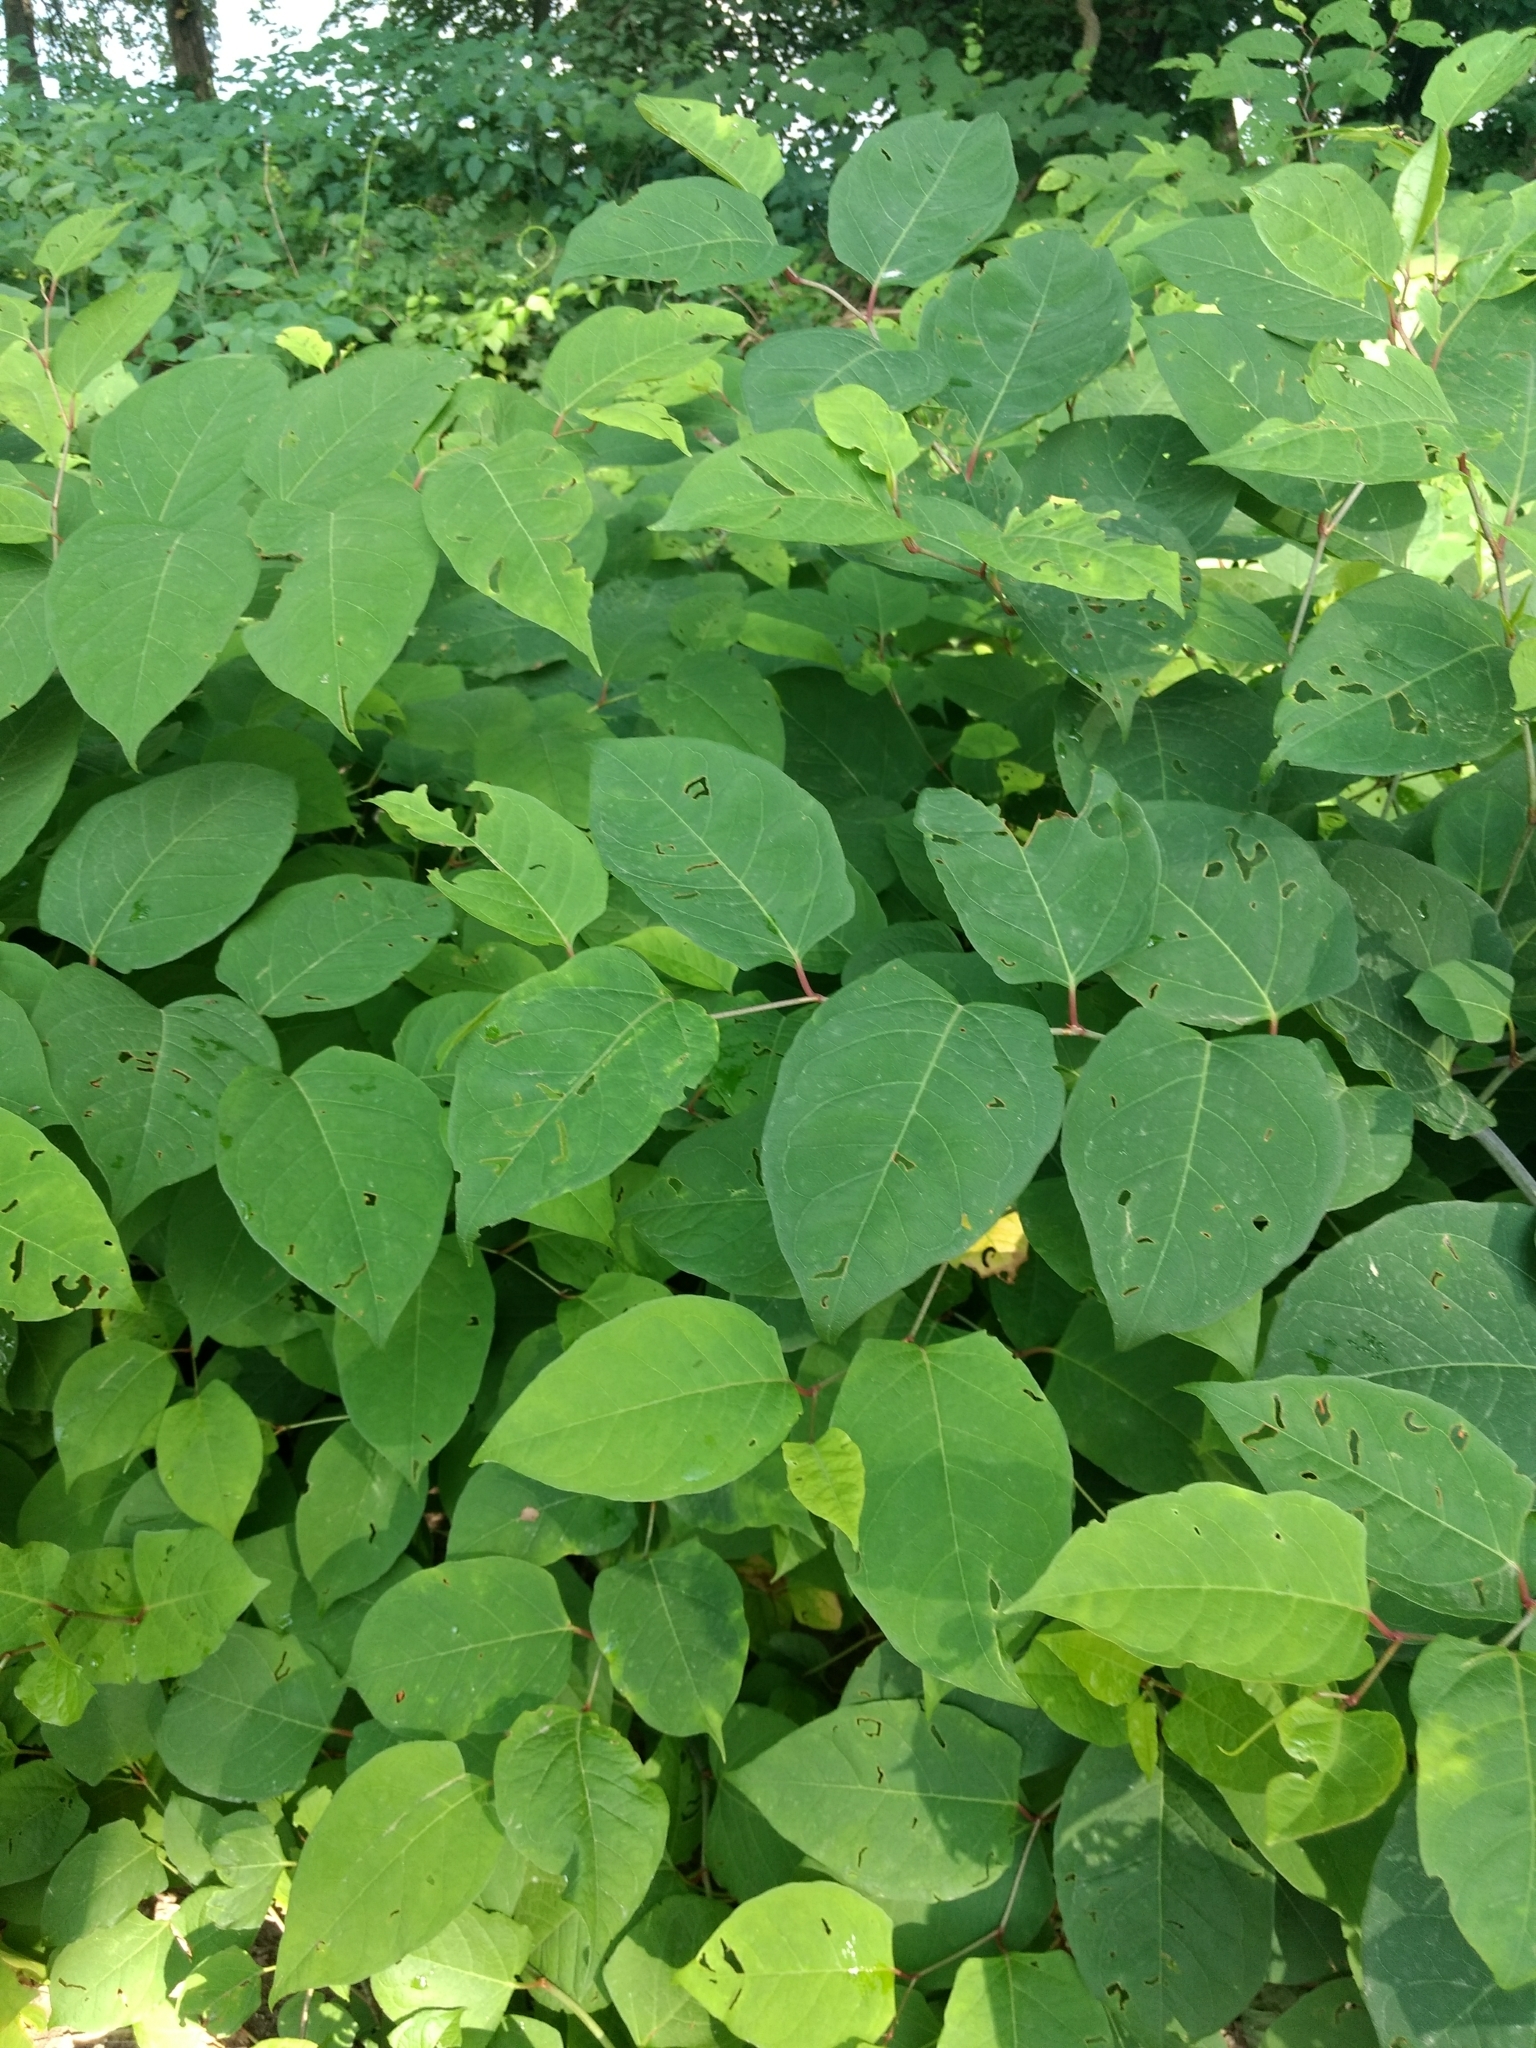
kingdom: Plantae
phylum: Tracheophyta
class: Magnoliopsida
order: Caryophyllales
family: Polygonaceae
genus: Reynoutria
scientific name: Reynoutria japonica
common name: Japanese knotweed
